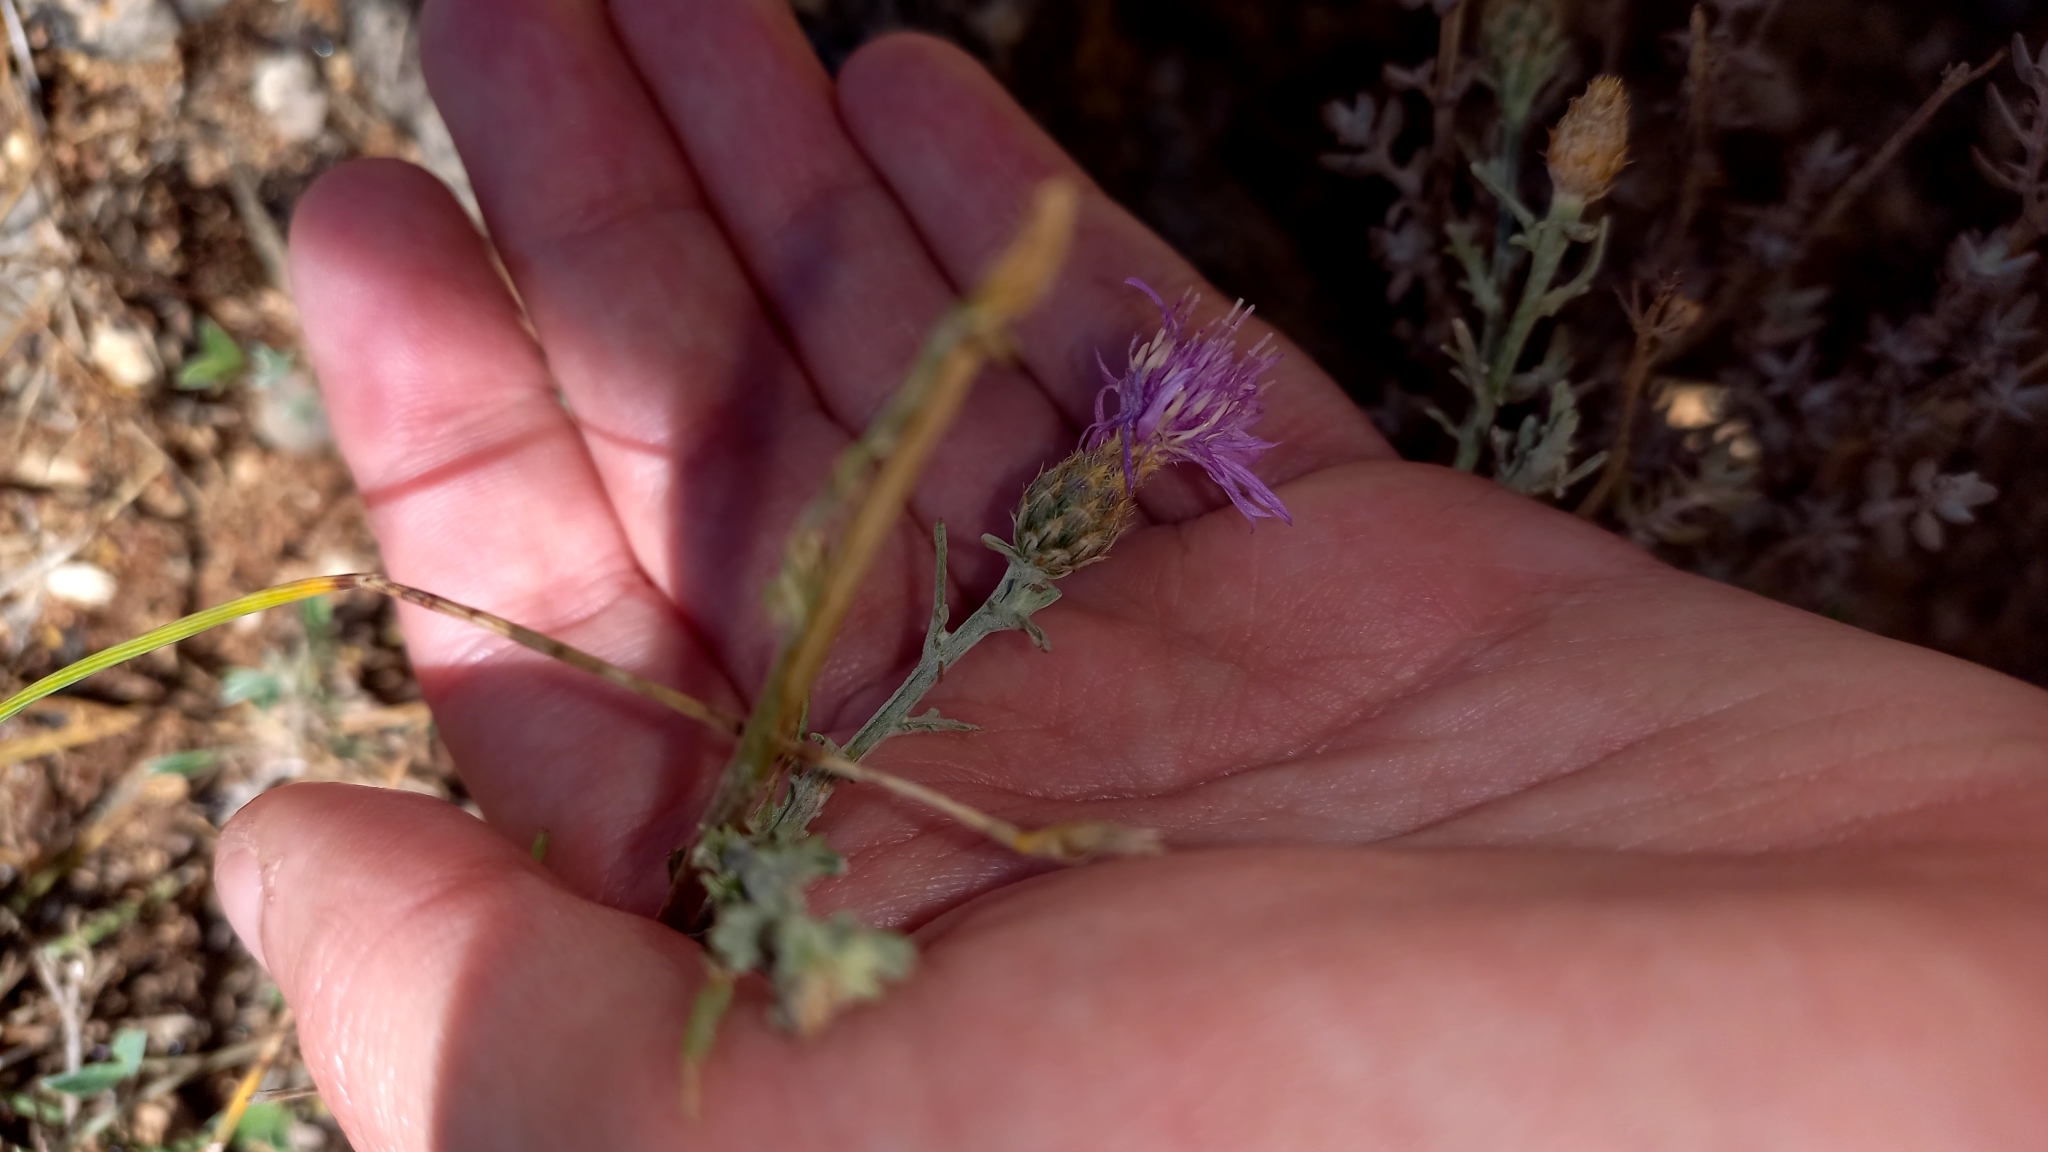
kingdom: Plantae
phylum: Tracheophyta
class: Magnoliopsida
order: Asterales
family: Asteraceae
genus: Centaurea
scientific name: Centaurea stoebe
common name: Spotted knapweed
